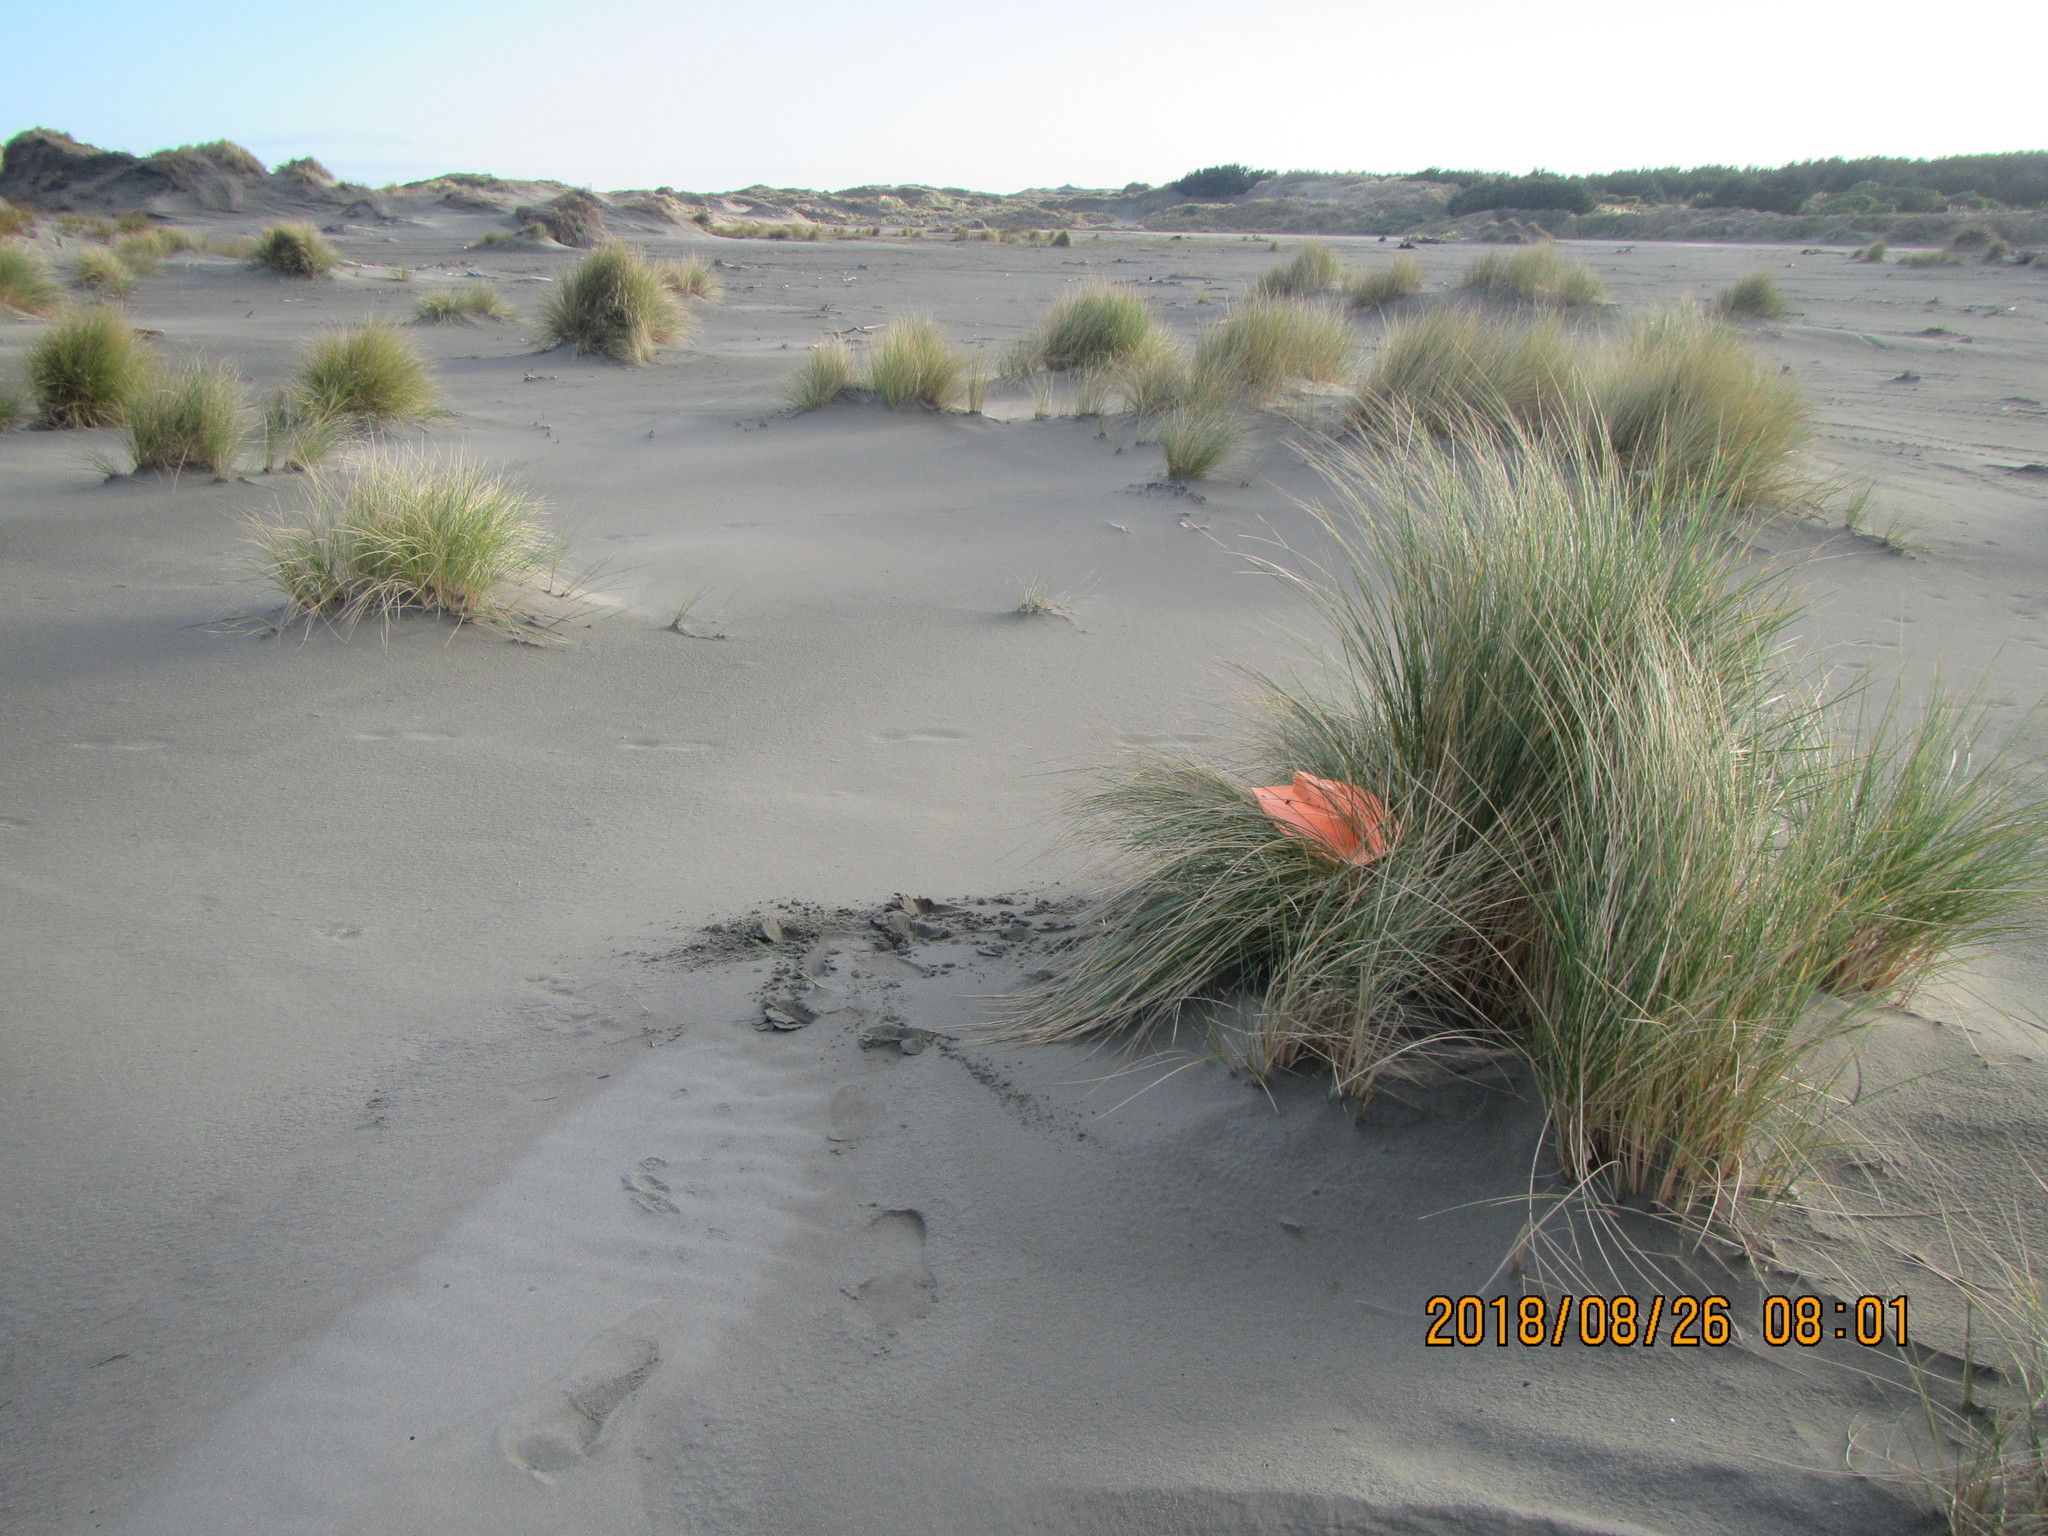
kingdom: Animalia
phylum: Arthropoda
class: Arachnida
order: Araneae
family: Theridiidae
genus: Cryptachaea
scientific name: Cryptachaea veruculata
